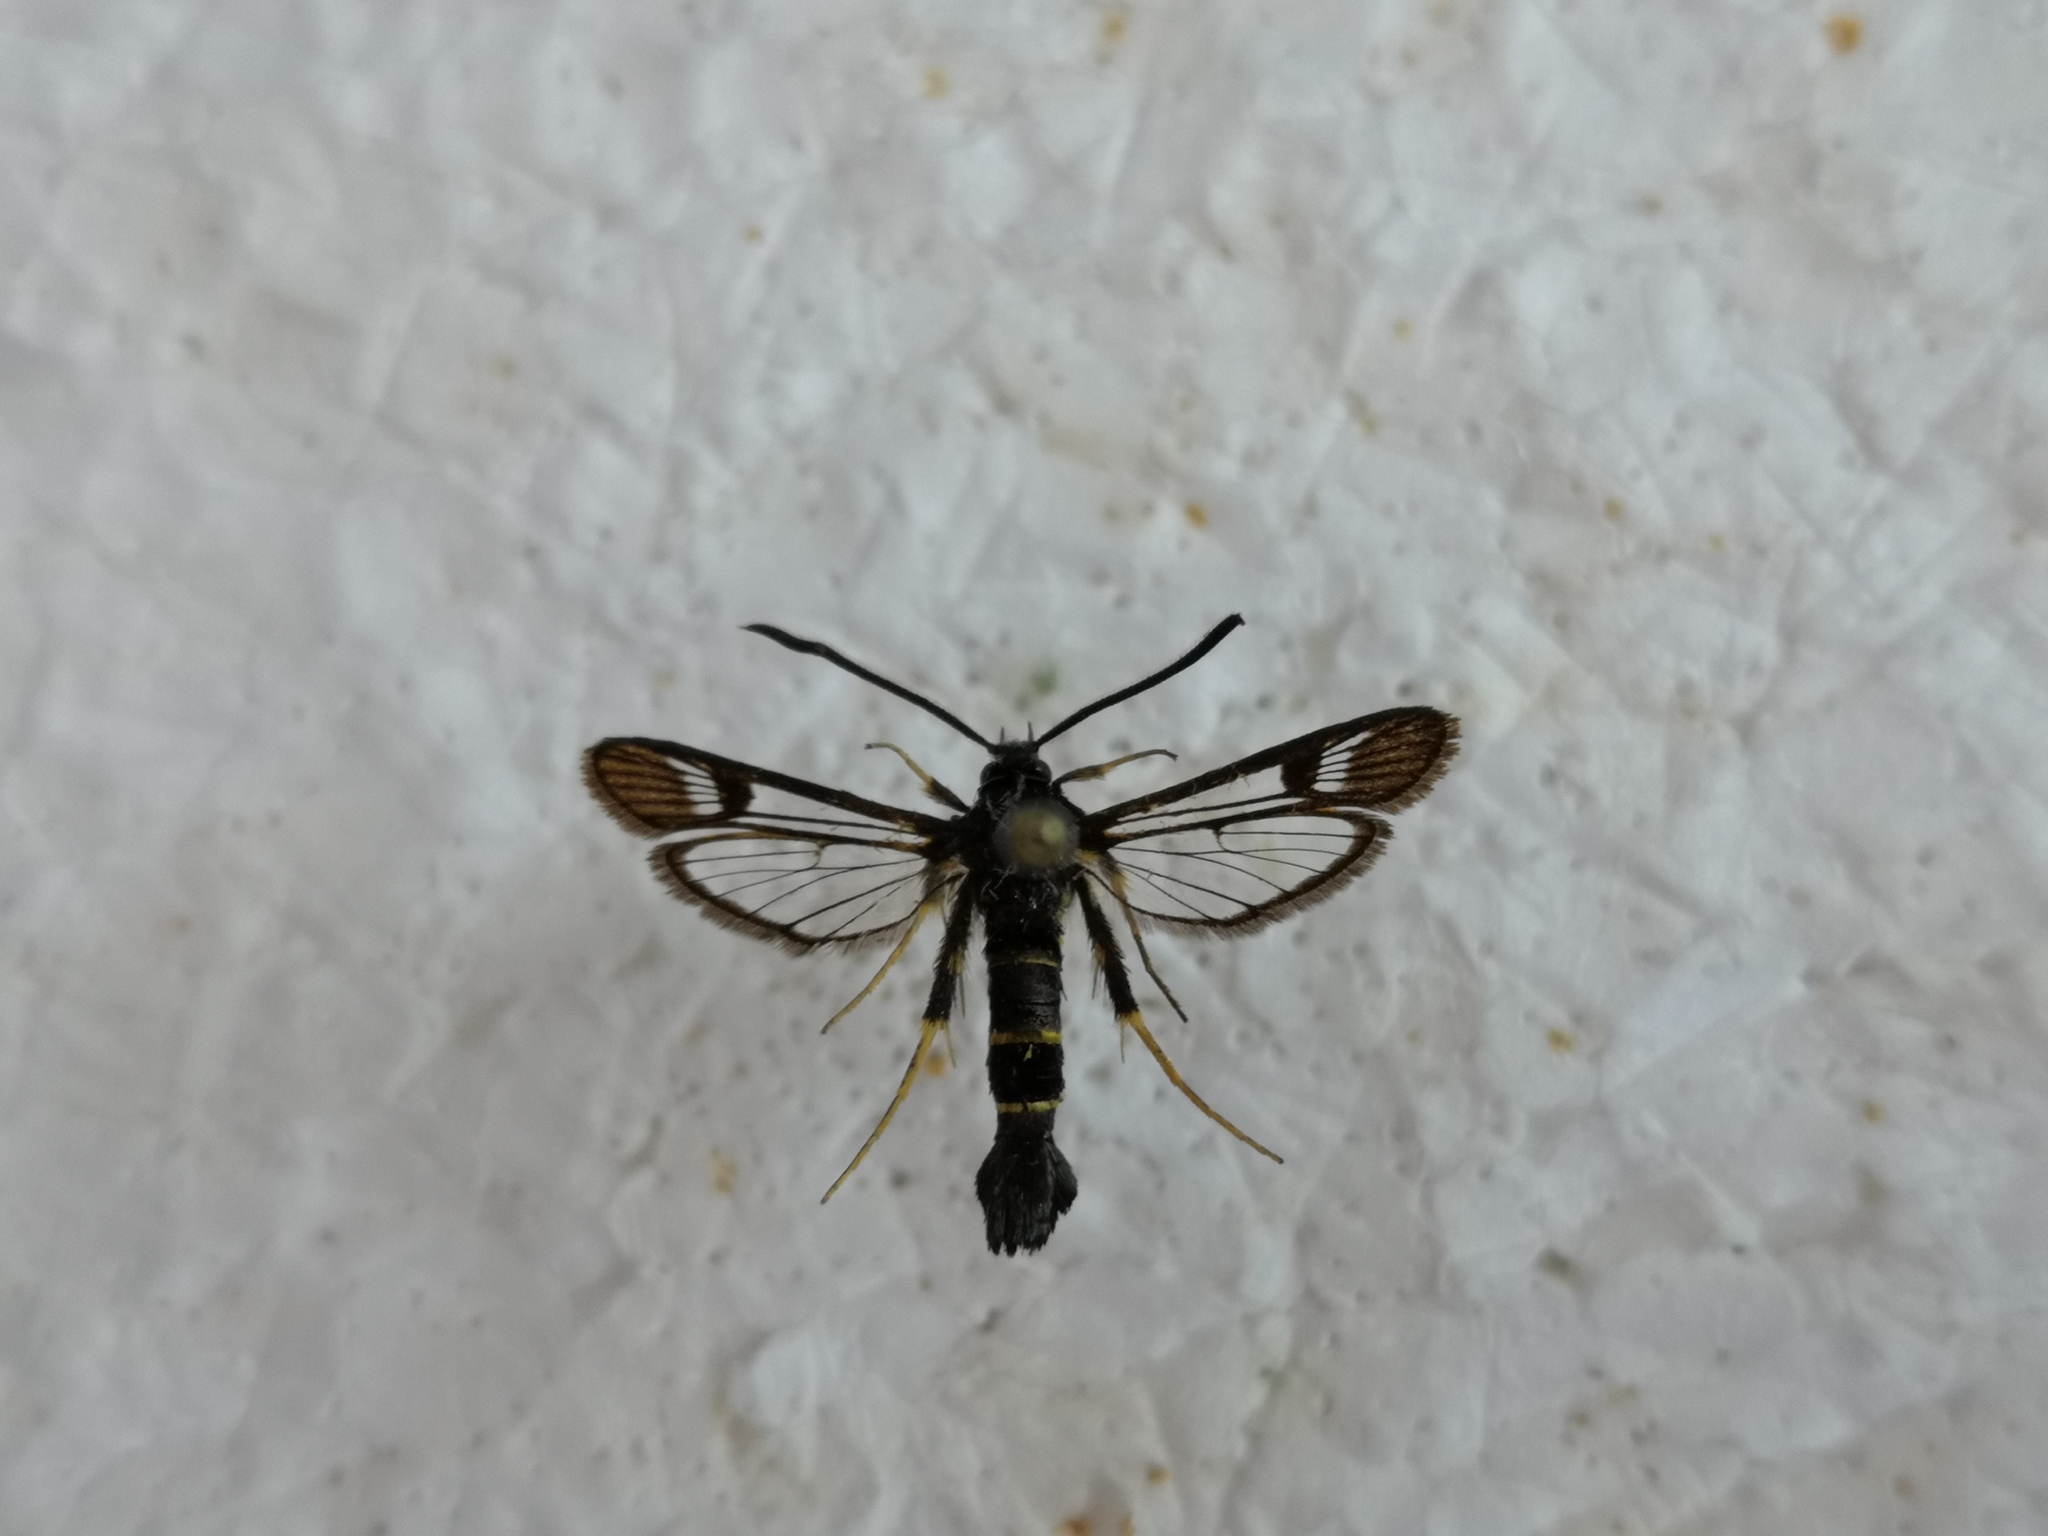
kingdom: Animalia
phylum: Arthropoda
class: Insecta
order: Lepidoptera
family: Sesiidae
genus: Synanthedon
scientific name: Synanthedon flaviventris
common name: Sallow clearwing
